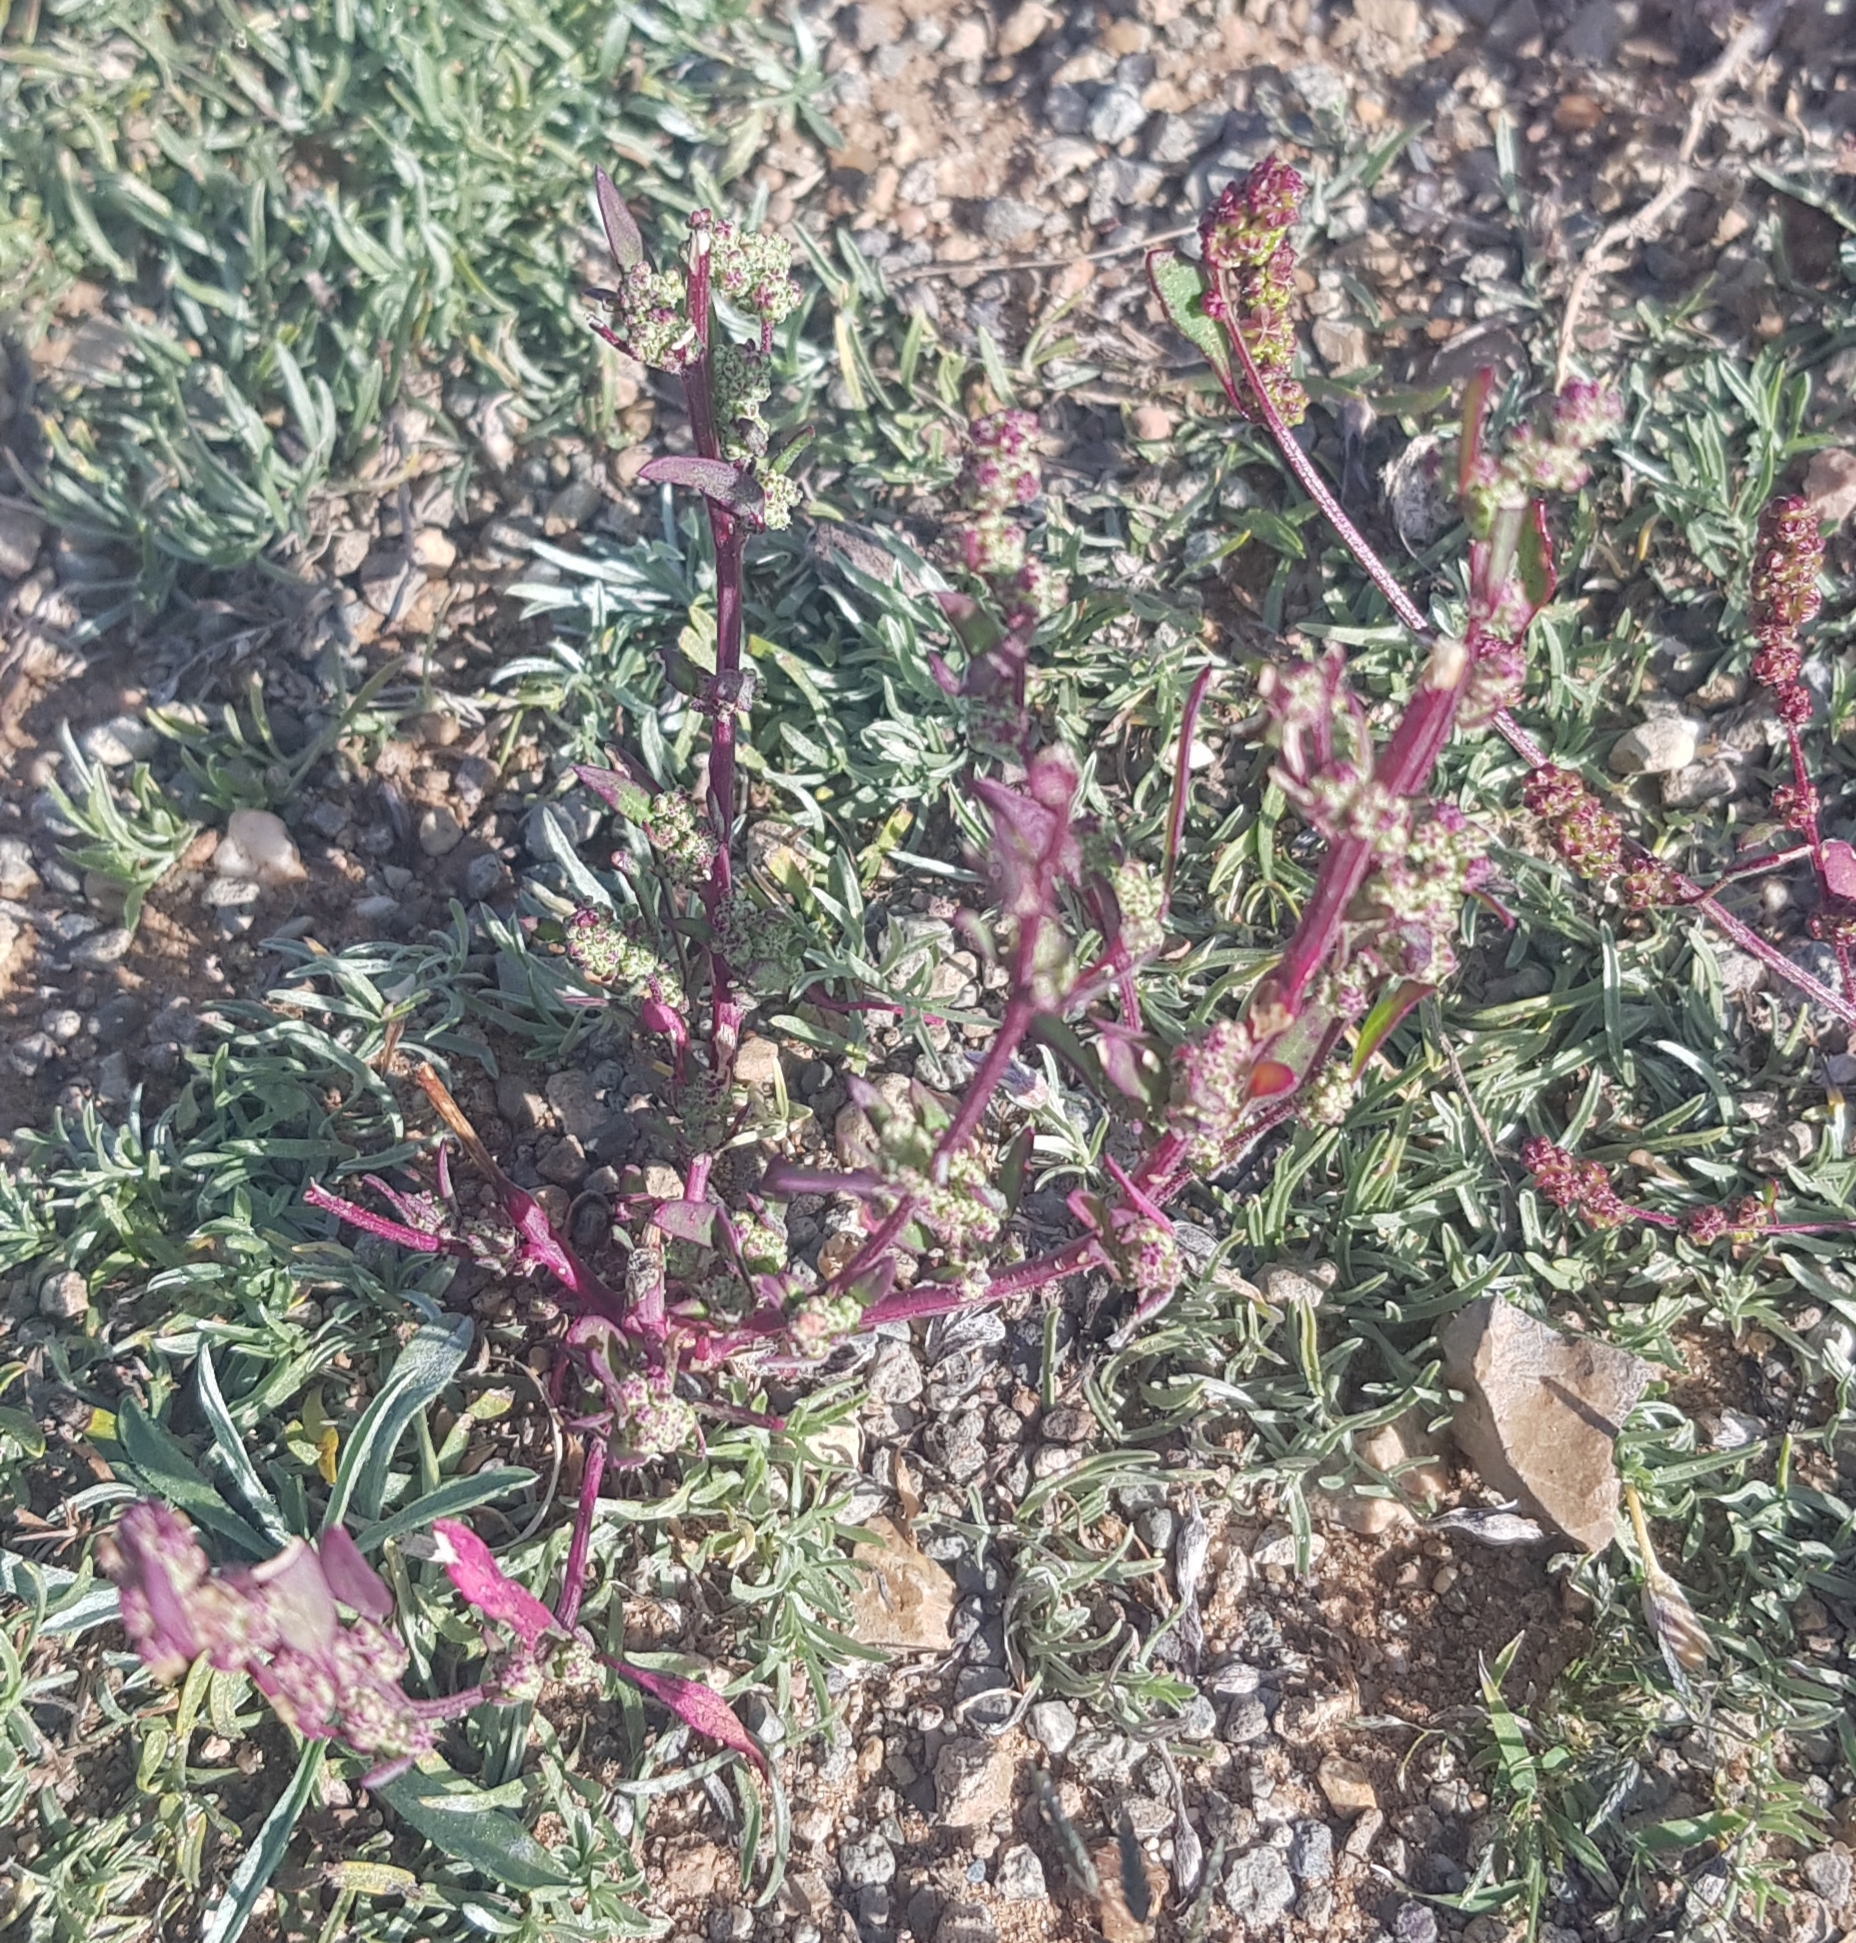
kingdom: Plantae
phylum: Tracheophyta
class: Magnoliopsida
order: Caryophyllales
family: Amaranthaceae
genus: Oxybasis
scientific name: Oxybasis glauca
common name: Glaucous goosefoot
